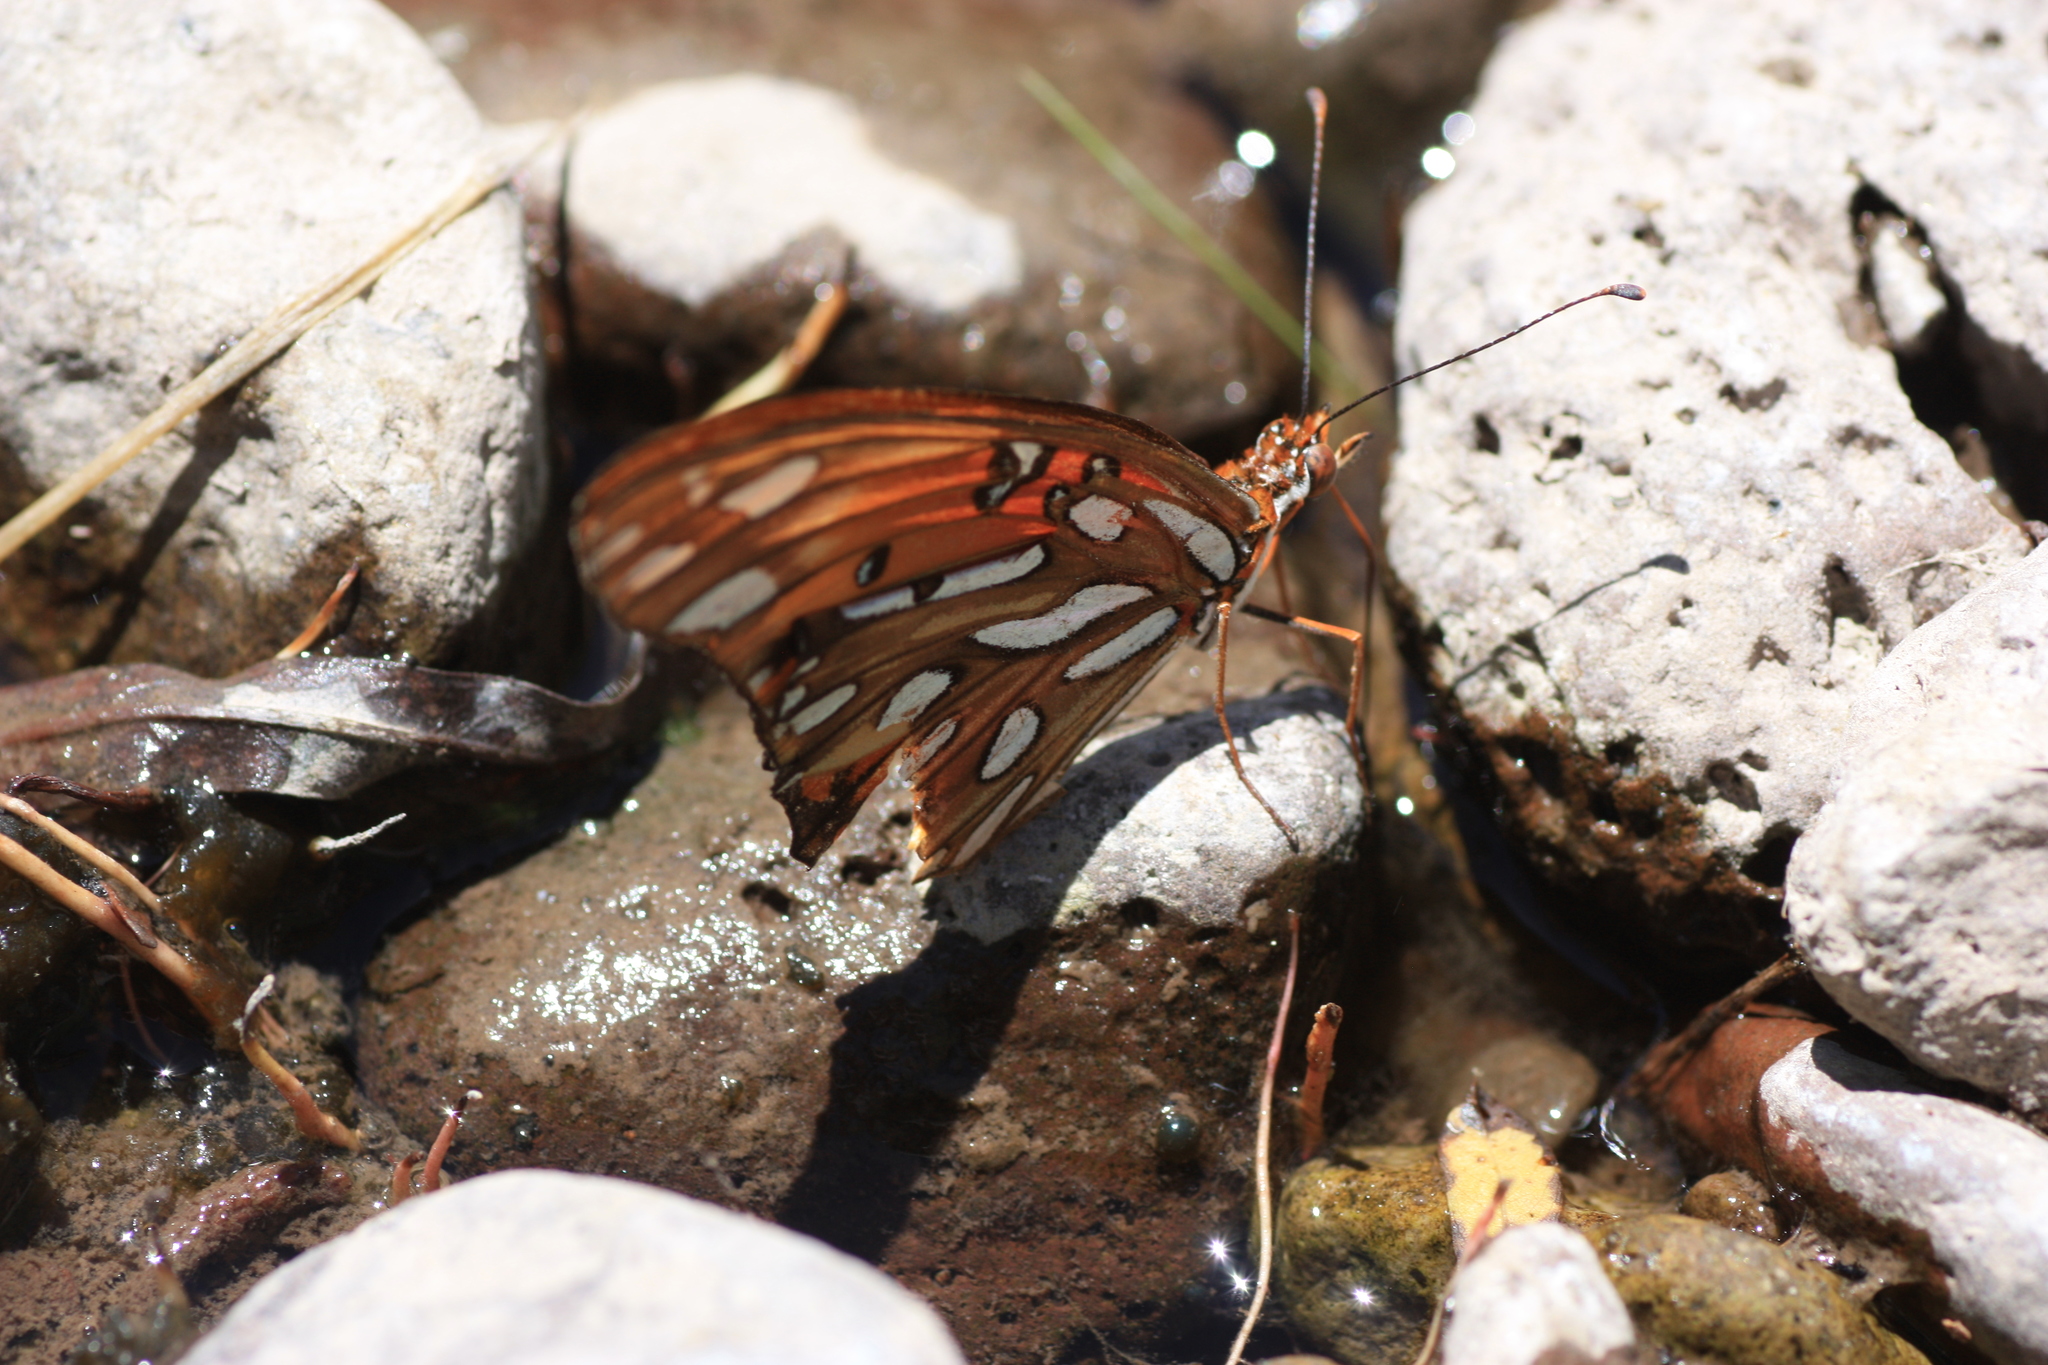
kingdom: Animalia
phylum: Arthropoda
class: Insecta
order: Lepidoptera
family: Nymphalidae
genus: Dione
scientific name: Dione vanillae
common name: Gulf fritillary
